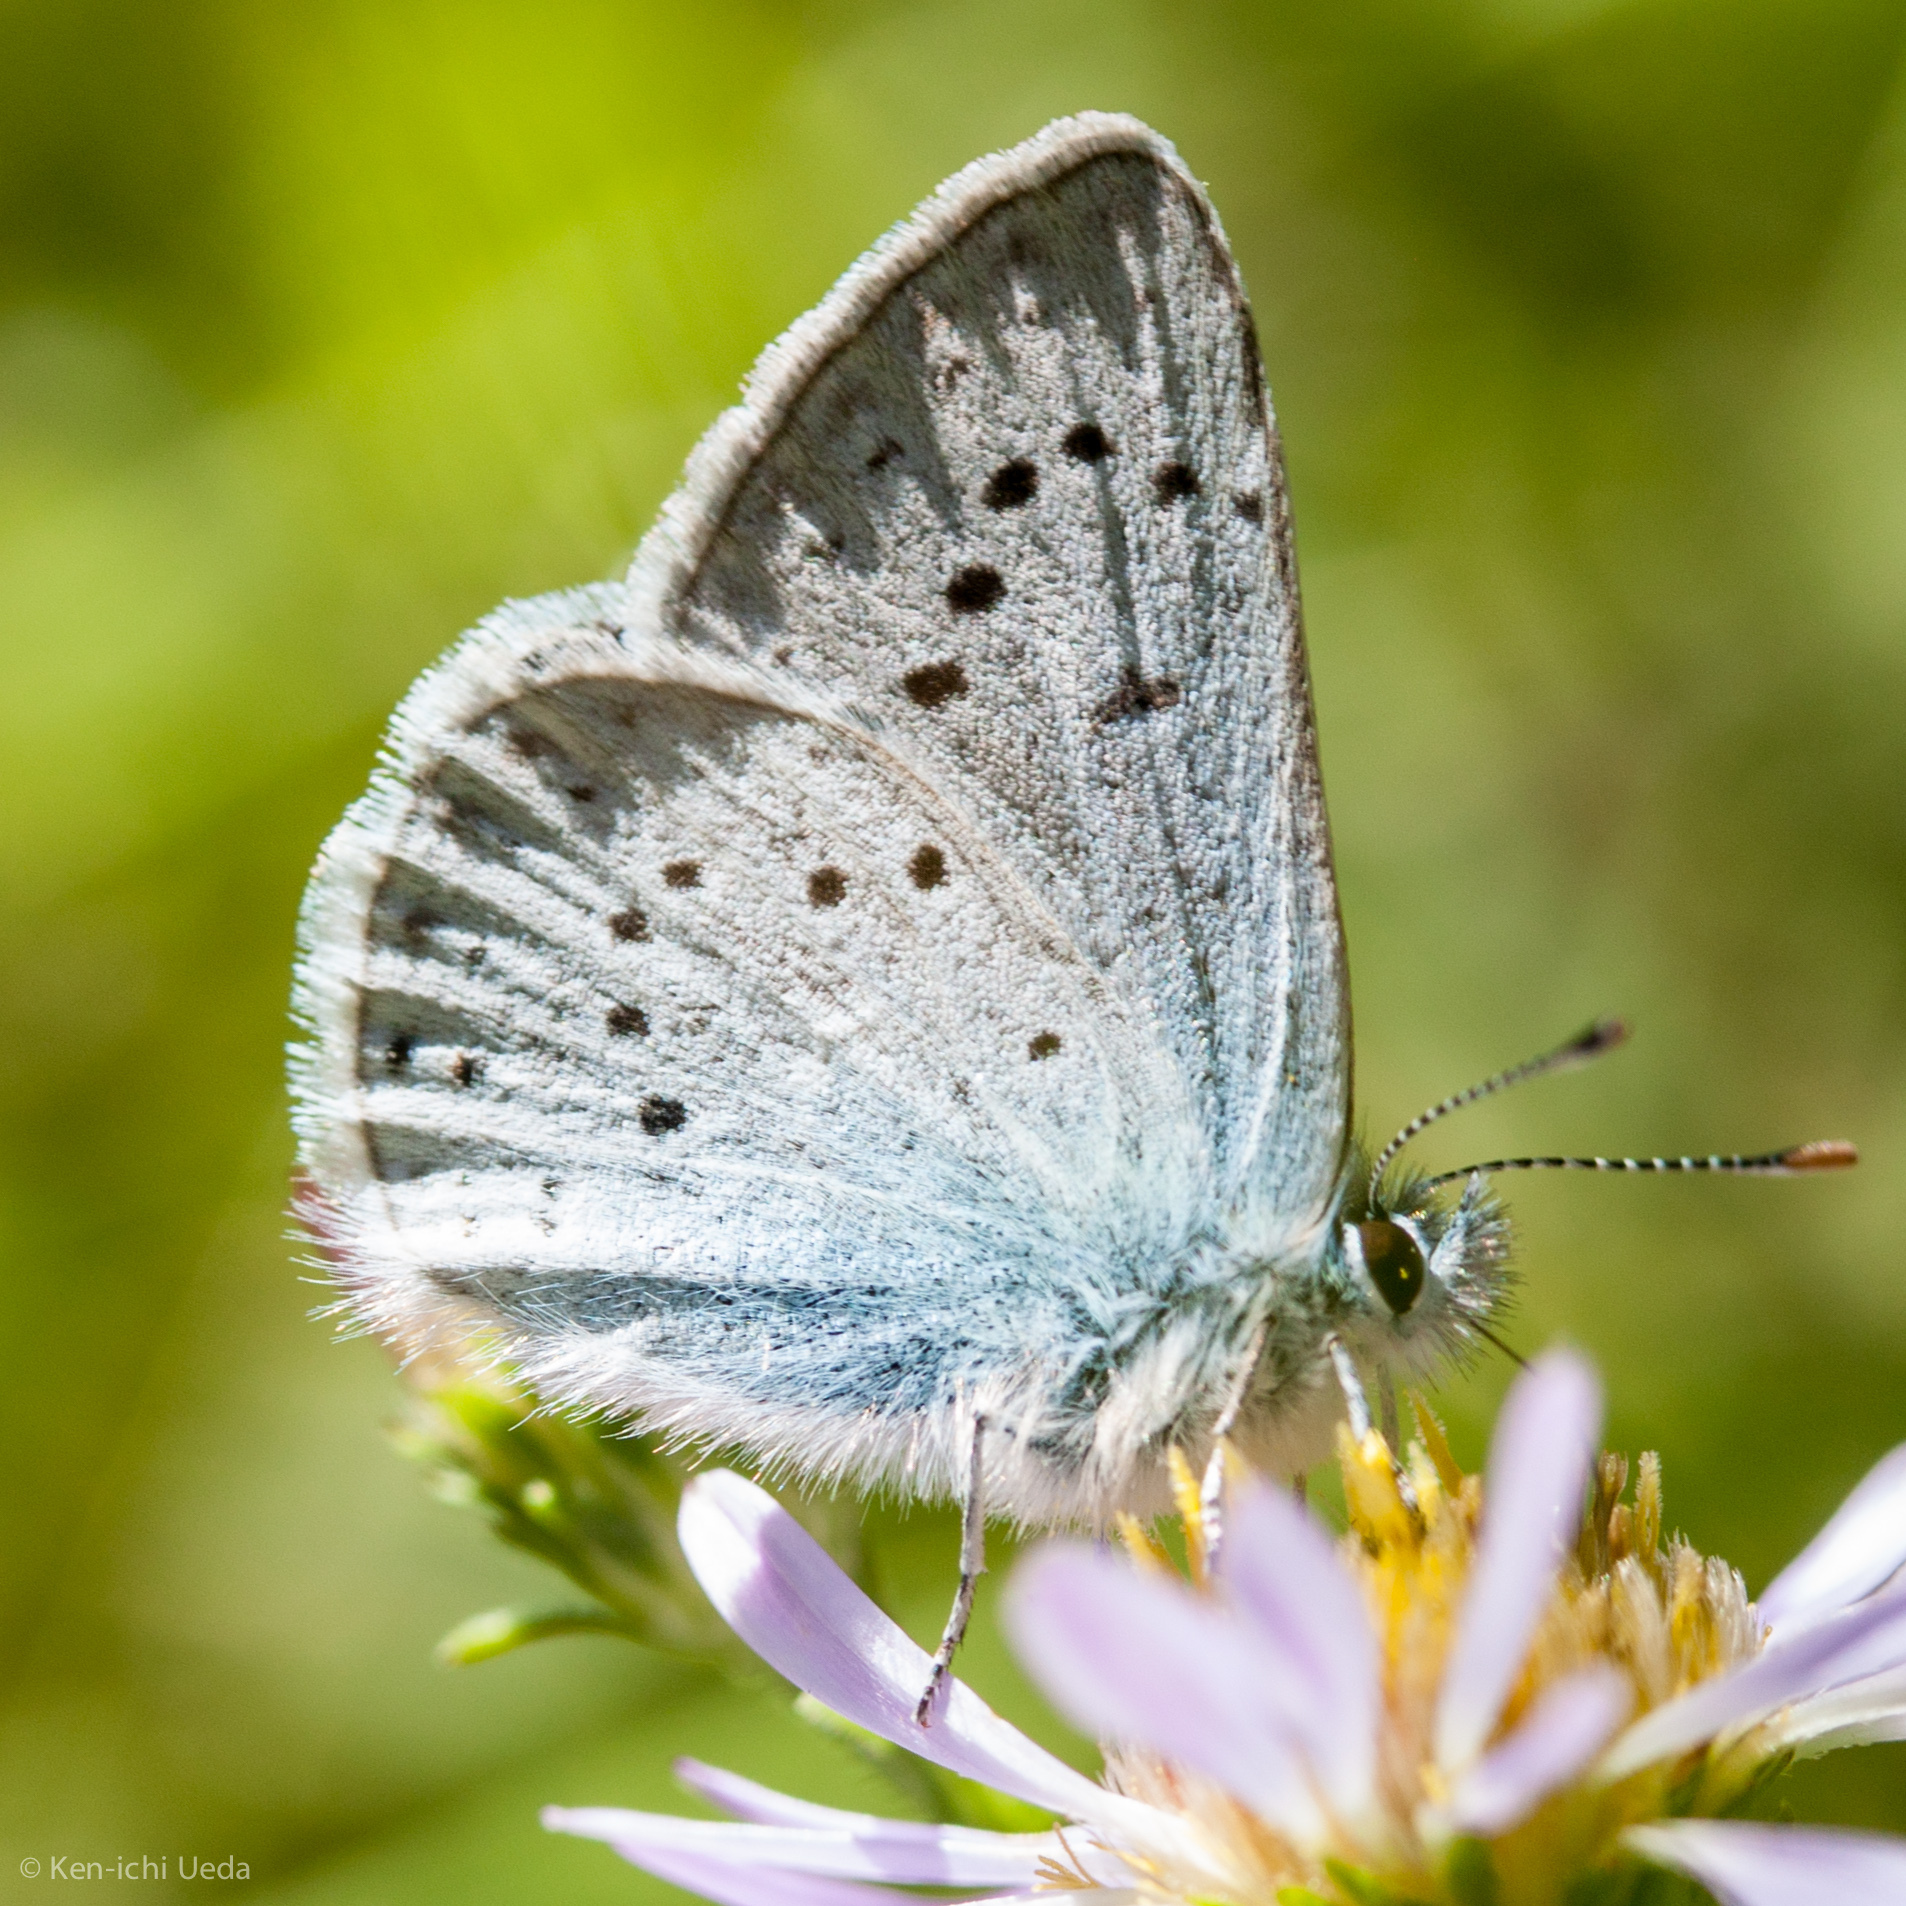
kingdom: Animalia
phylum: Arthropoda
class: Insecta
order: Lepidoptera
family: Lycaenidae
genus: Icaricia
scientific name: Icaricia saepiolus
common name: Greenish blue
